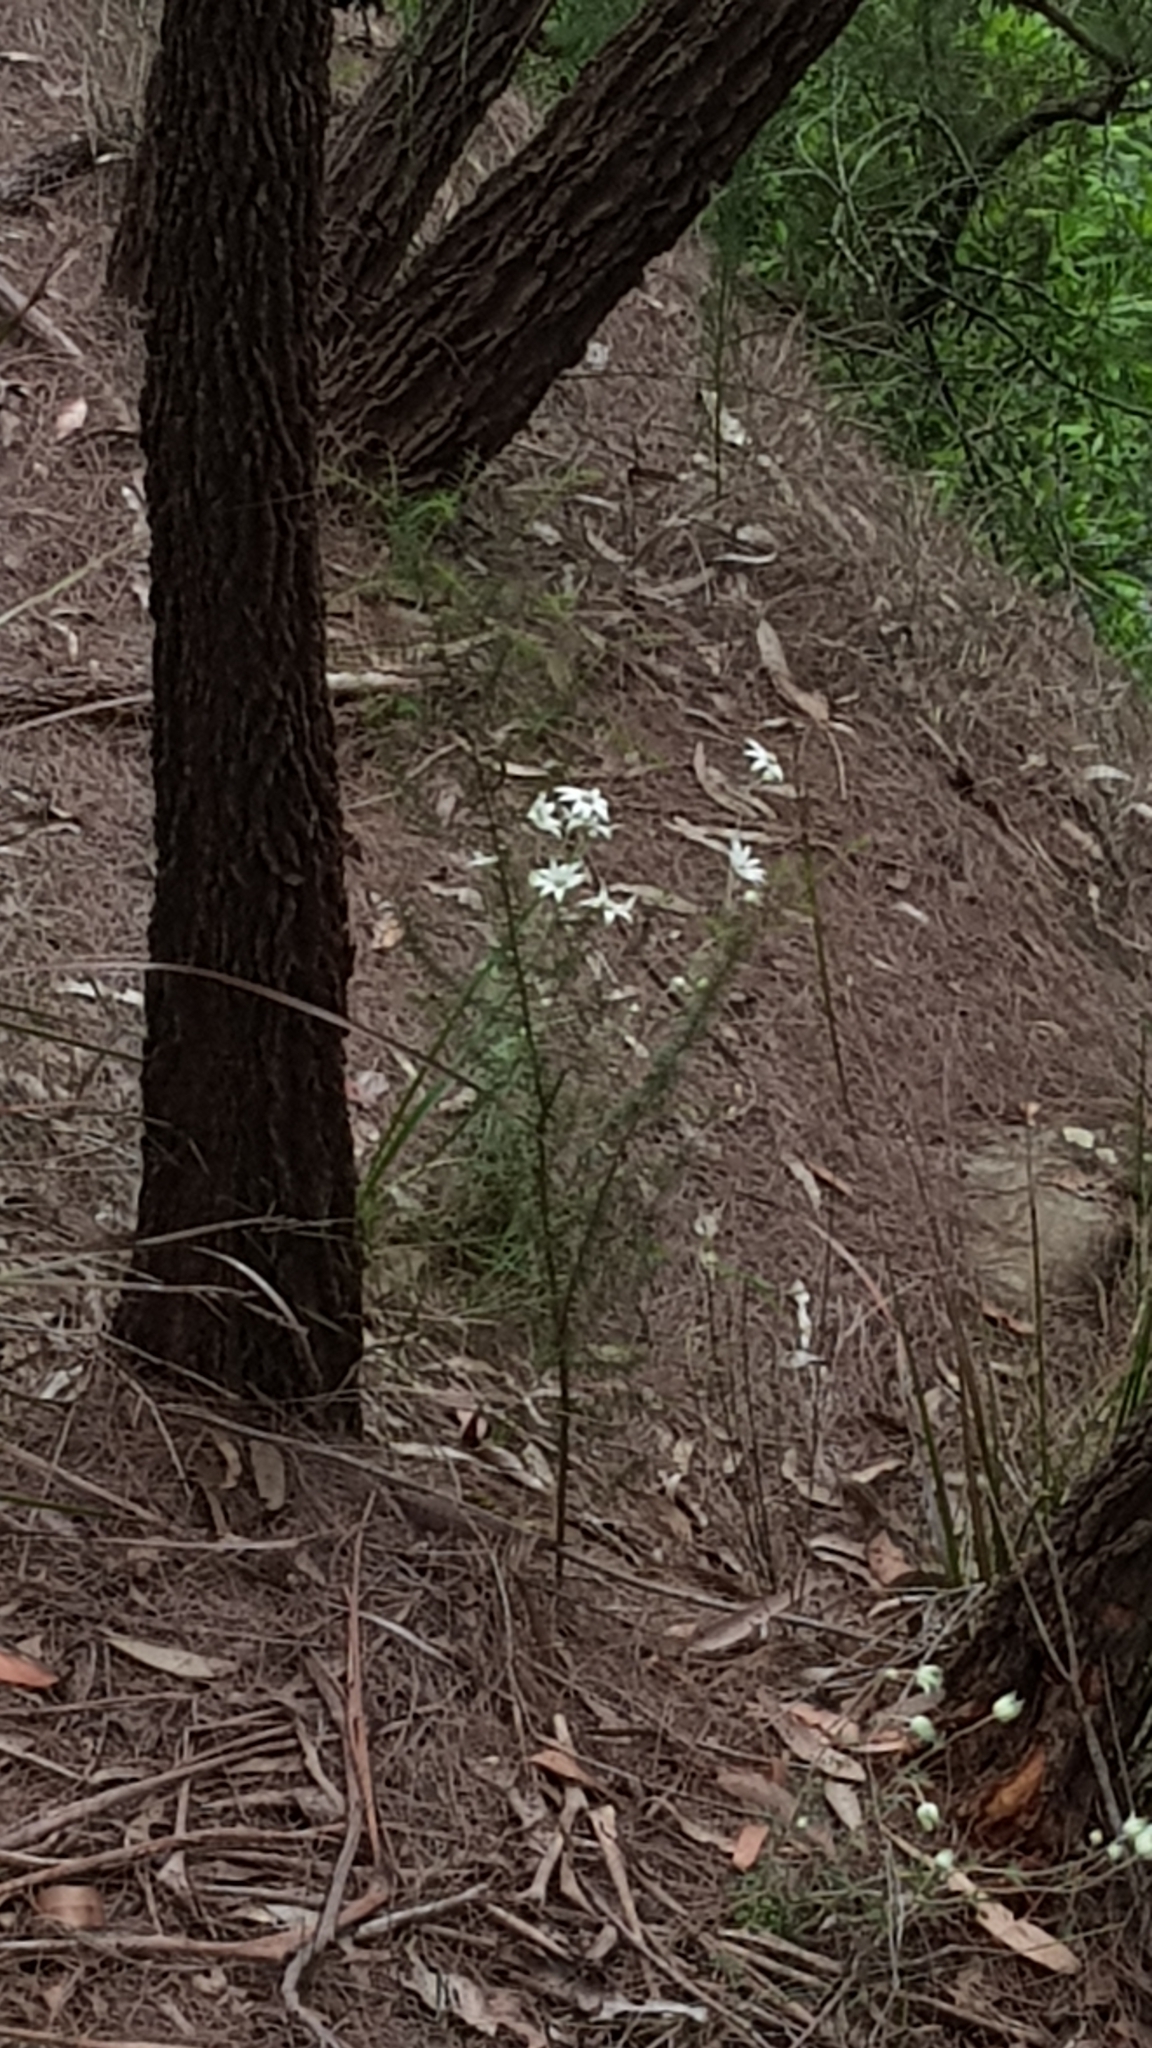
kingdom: Plantae
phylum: Tracheophyta
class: Magnoliopsida
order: Apiales
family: Apiaceae
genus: Actinotus
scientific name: Actinotus helianthi
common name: Flannel-flower
